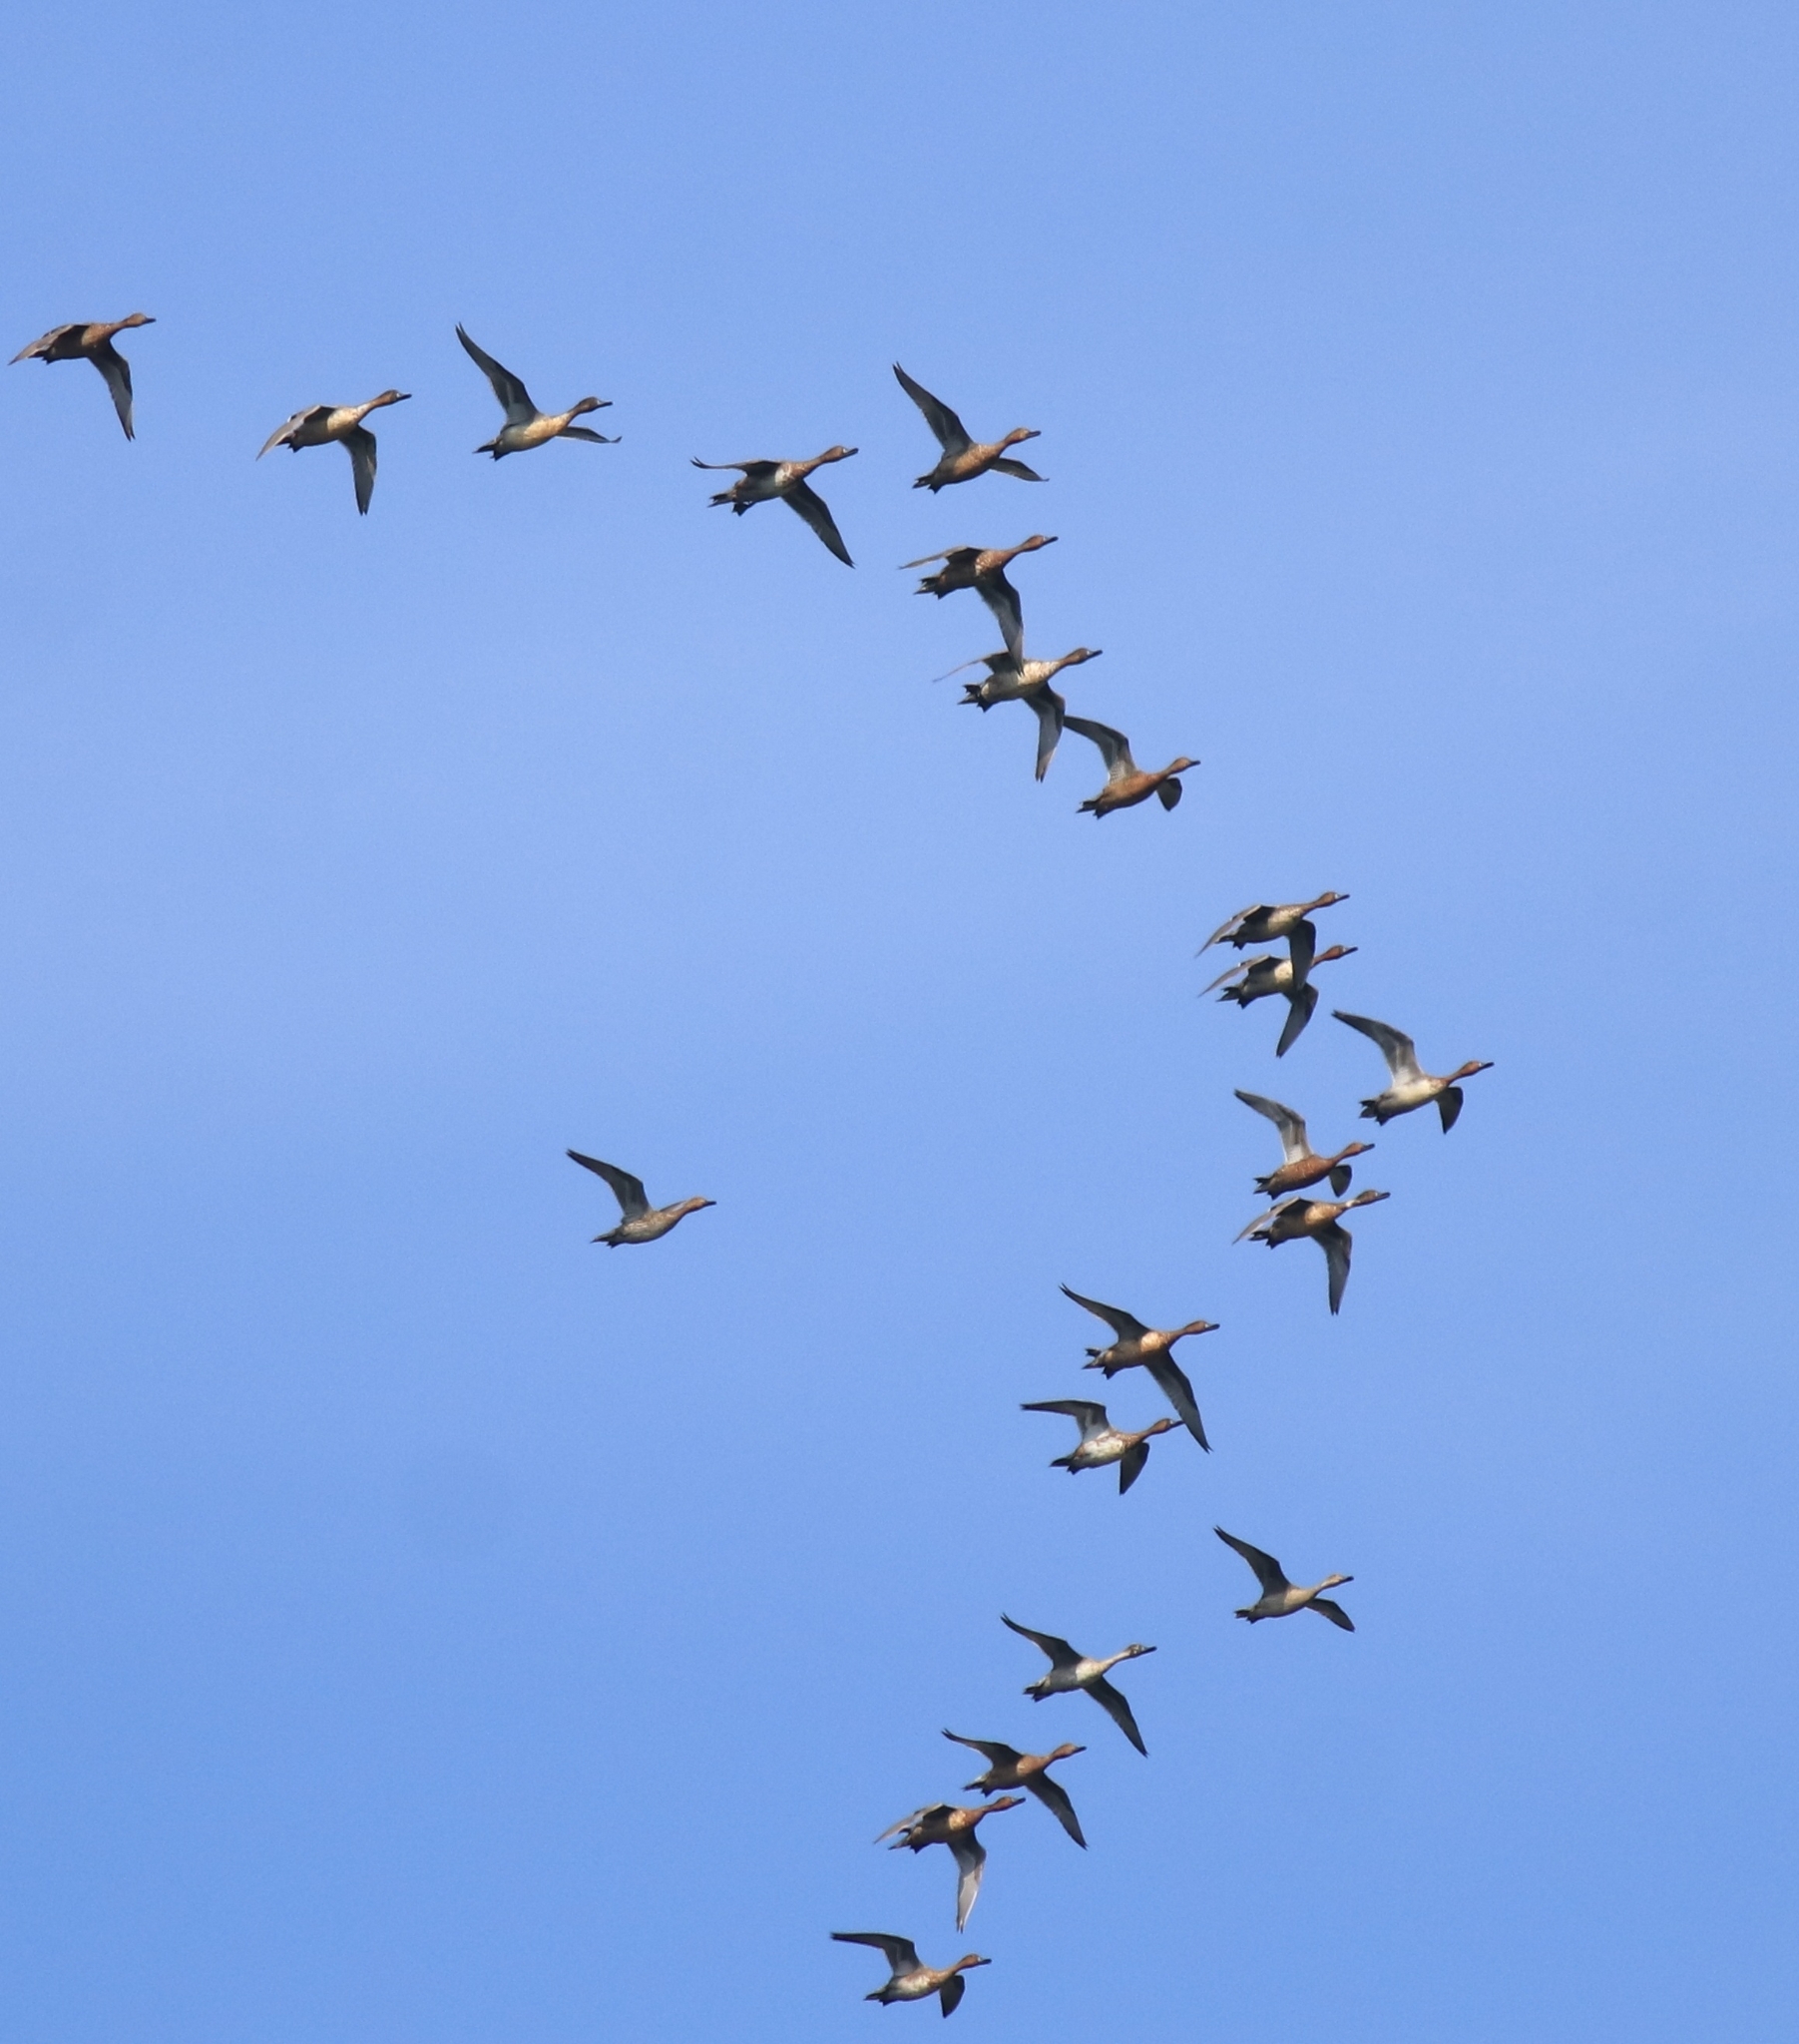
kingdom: Animalia
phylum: Chordata
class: Aves
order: Anseriformes
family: Anatidae
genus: Anas
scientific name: Anas acuta
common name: Northern pintail
